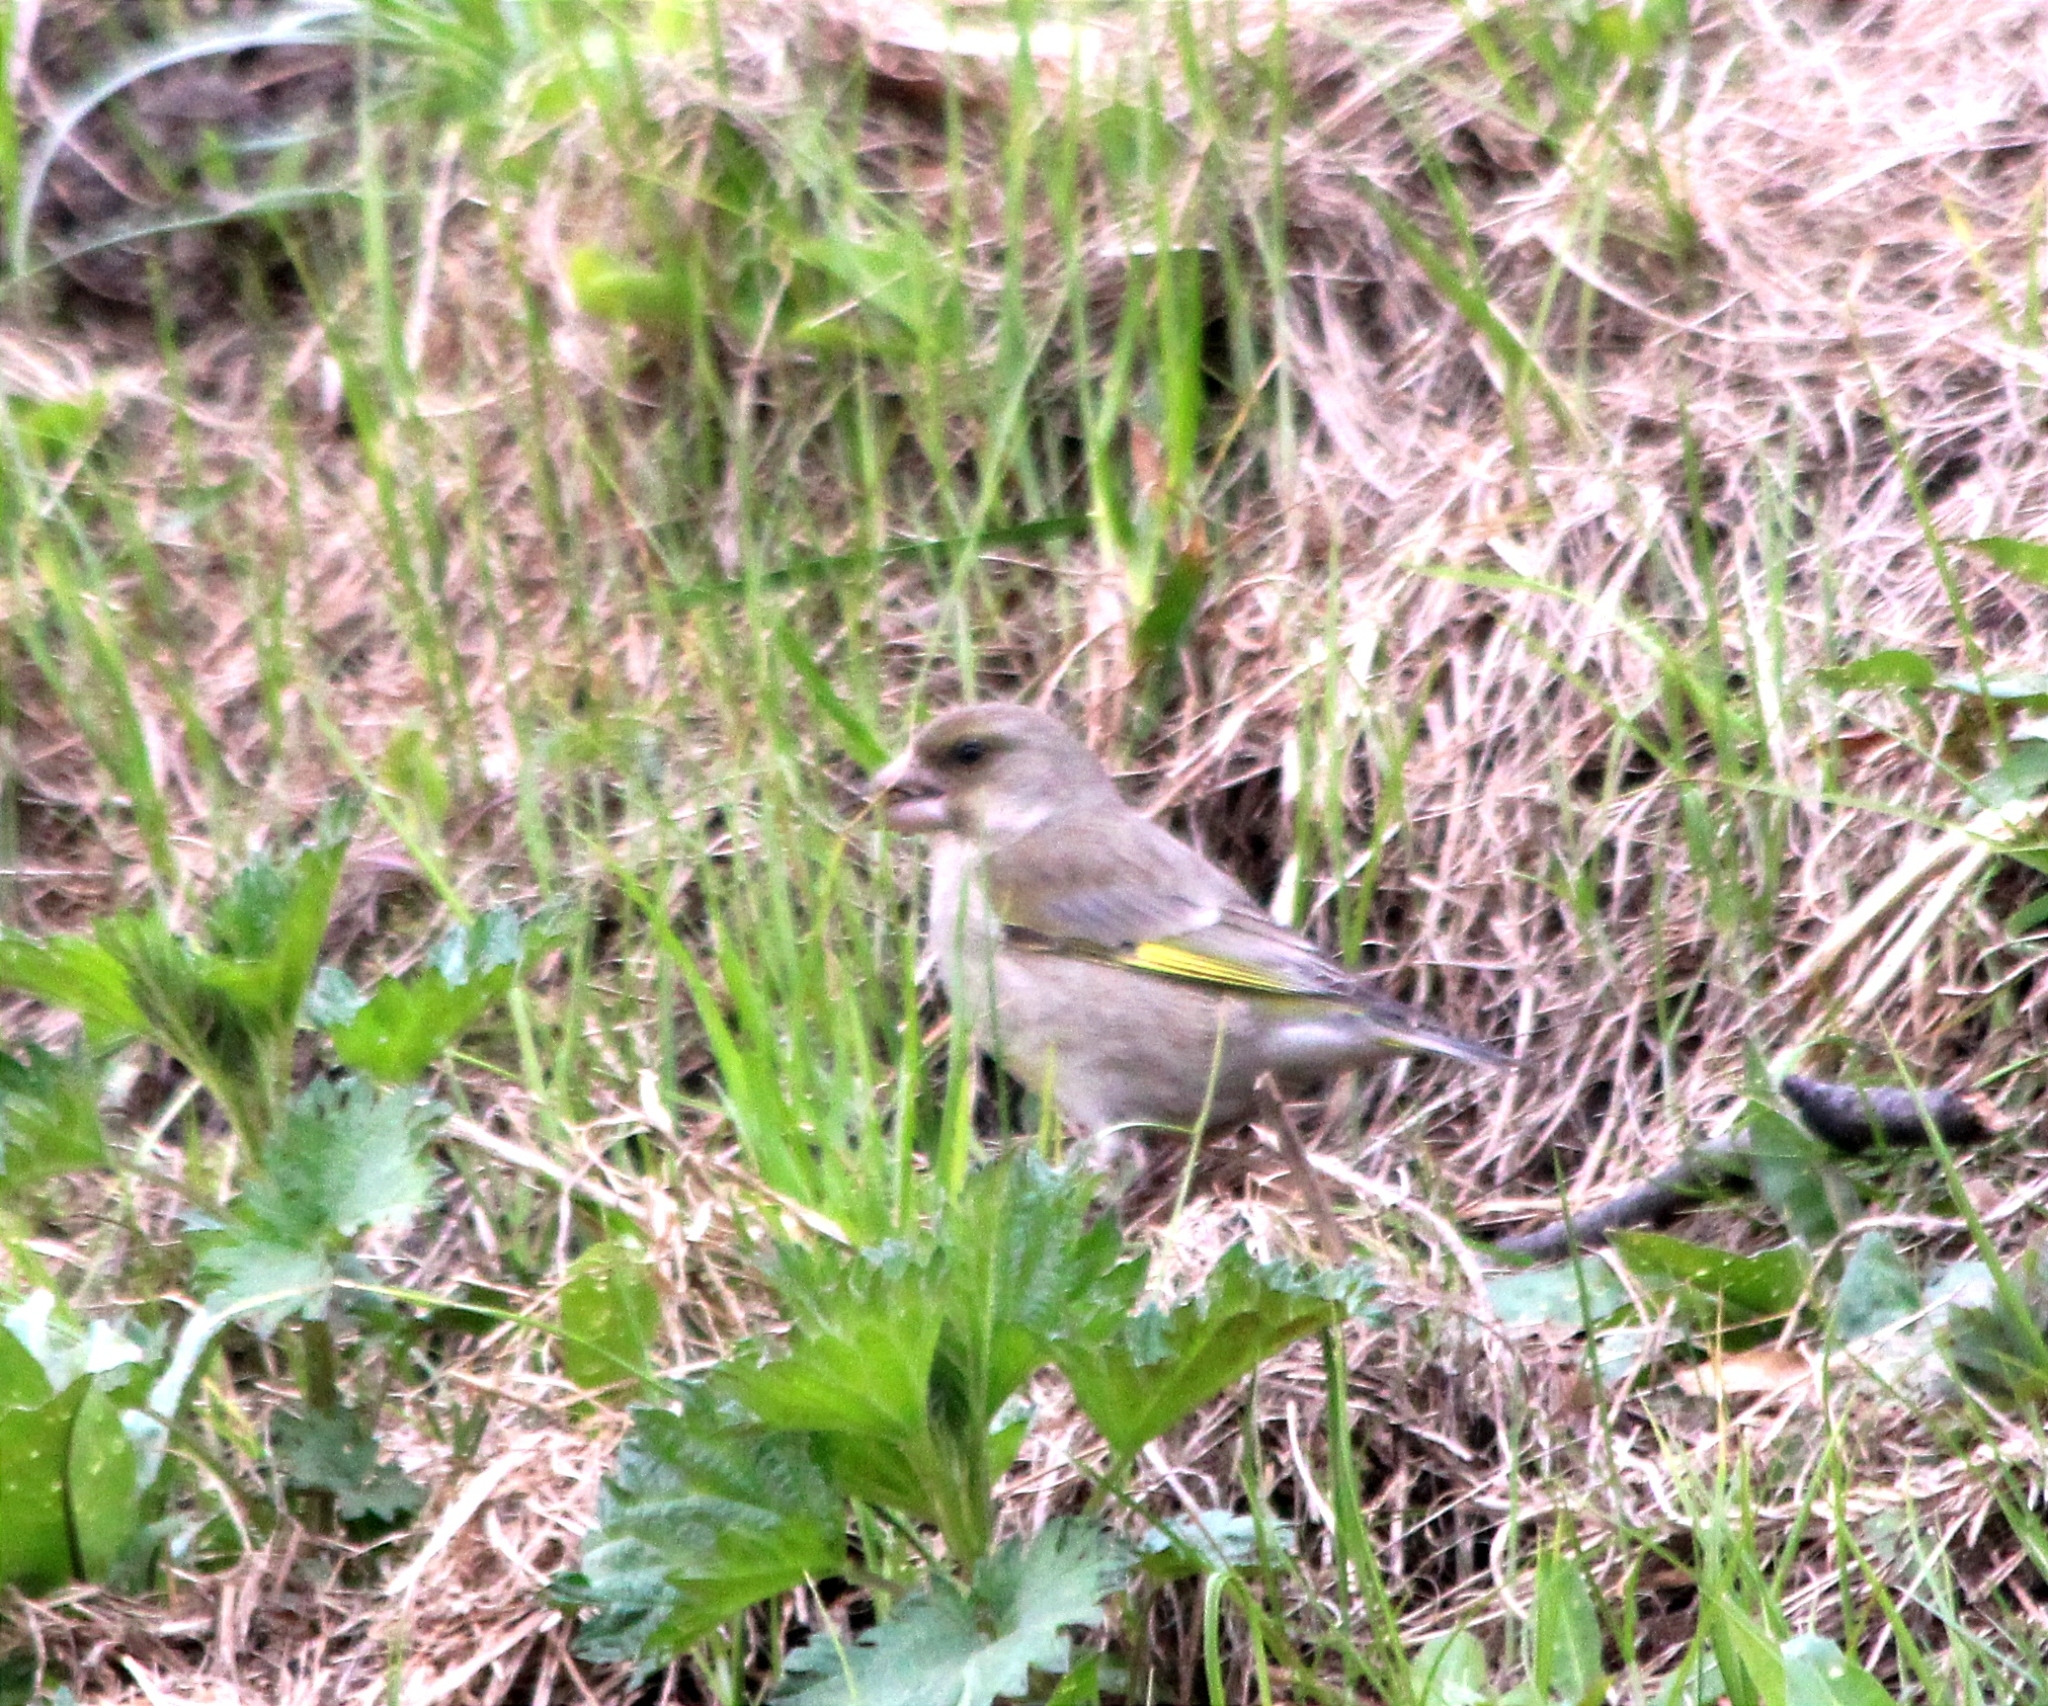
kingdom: Plantae
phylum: Tracheophyta
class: Liliopsida
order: Poales
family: Poaceae
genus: Chloris
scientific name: Chloris chloris
